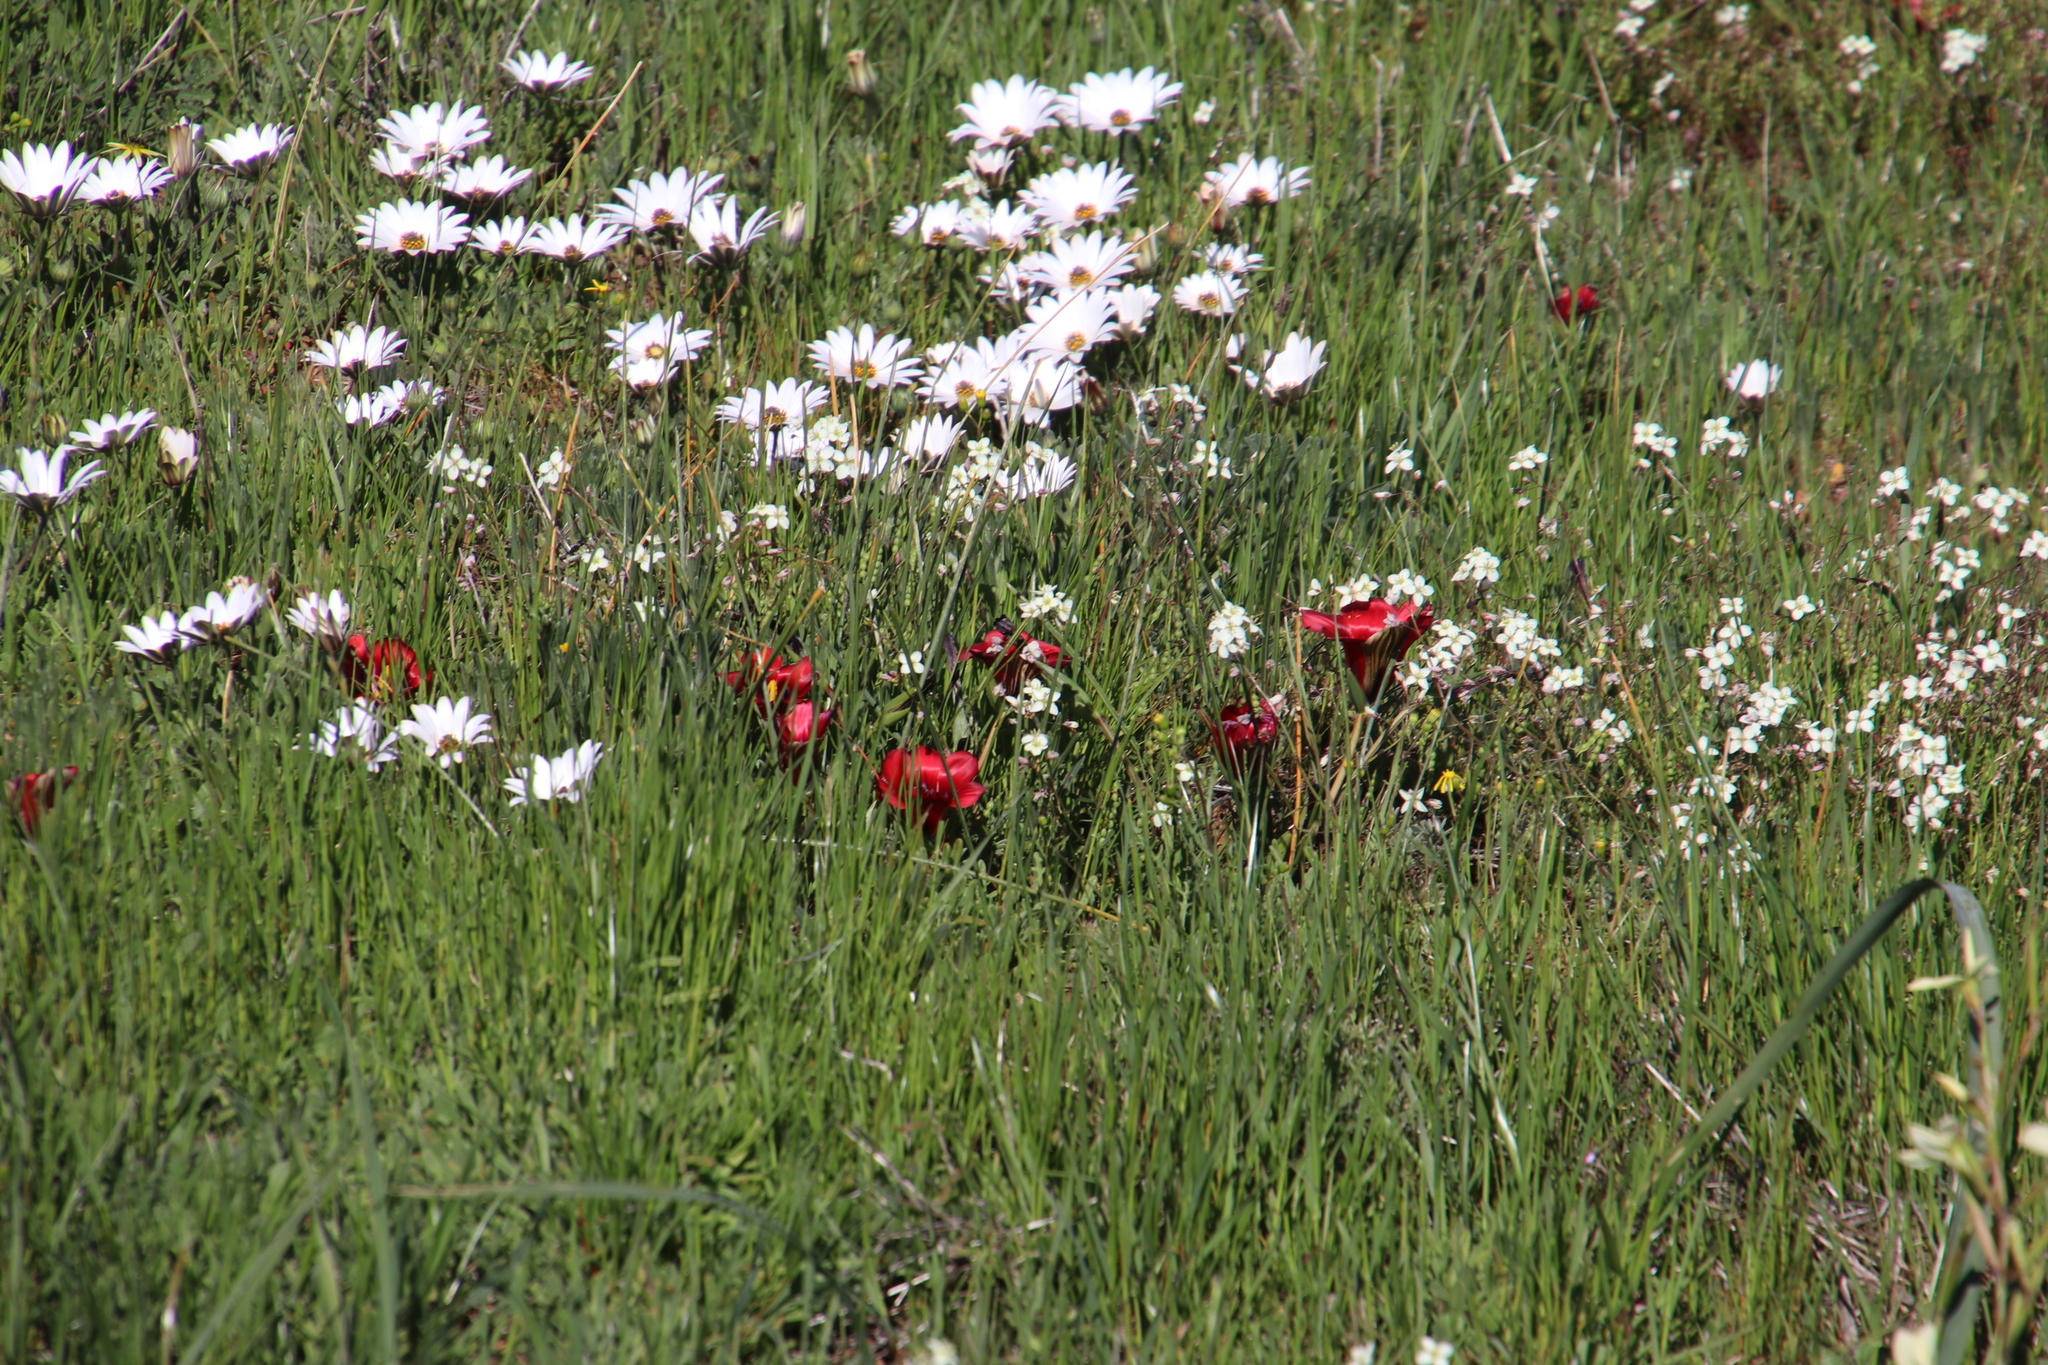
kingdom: Plantae
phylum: Tracheophyta
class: Liliopsida
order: Asparagales
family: Iridaceae
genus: Romulea
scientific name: Romulea monadelpha
